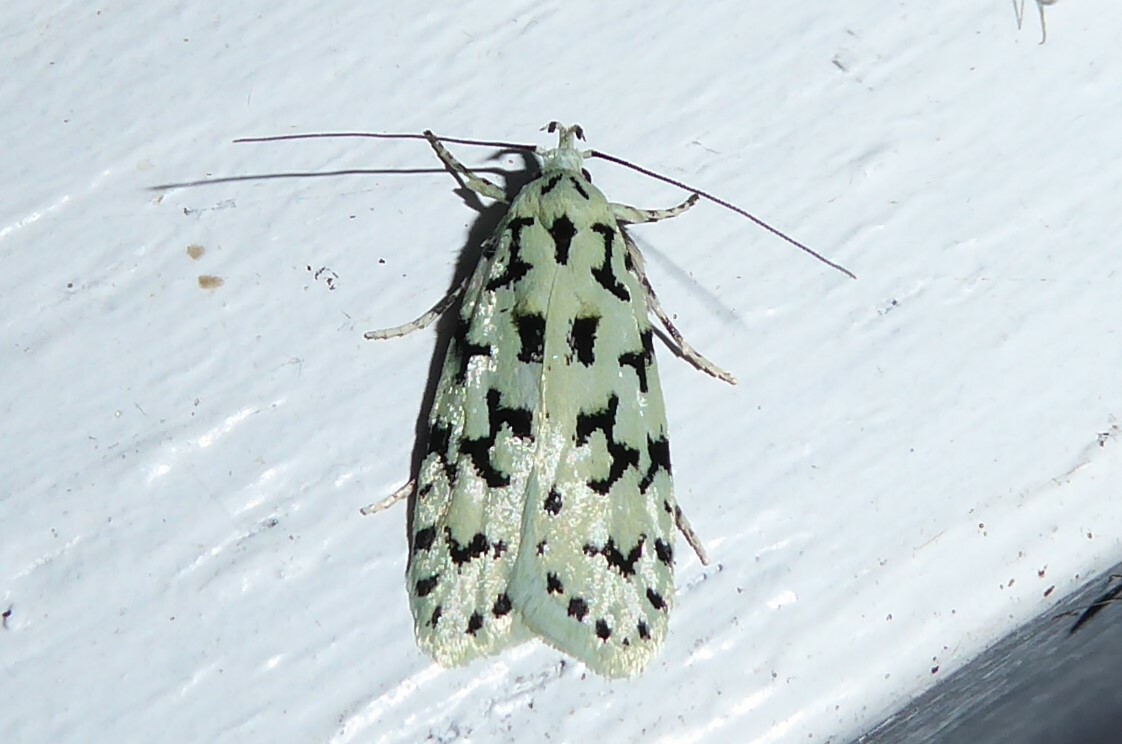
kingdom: Animalia
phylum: Arthropoda
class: Insecta
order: Lepidoptera
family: Oecophoridae
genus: Izatha
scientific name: Izatha huttoni
